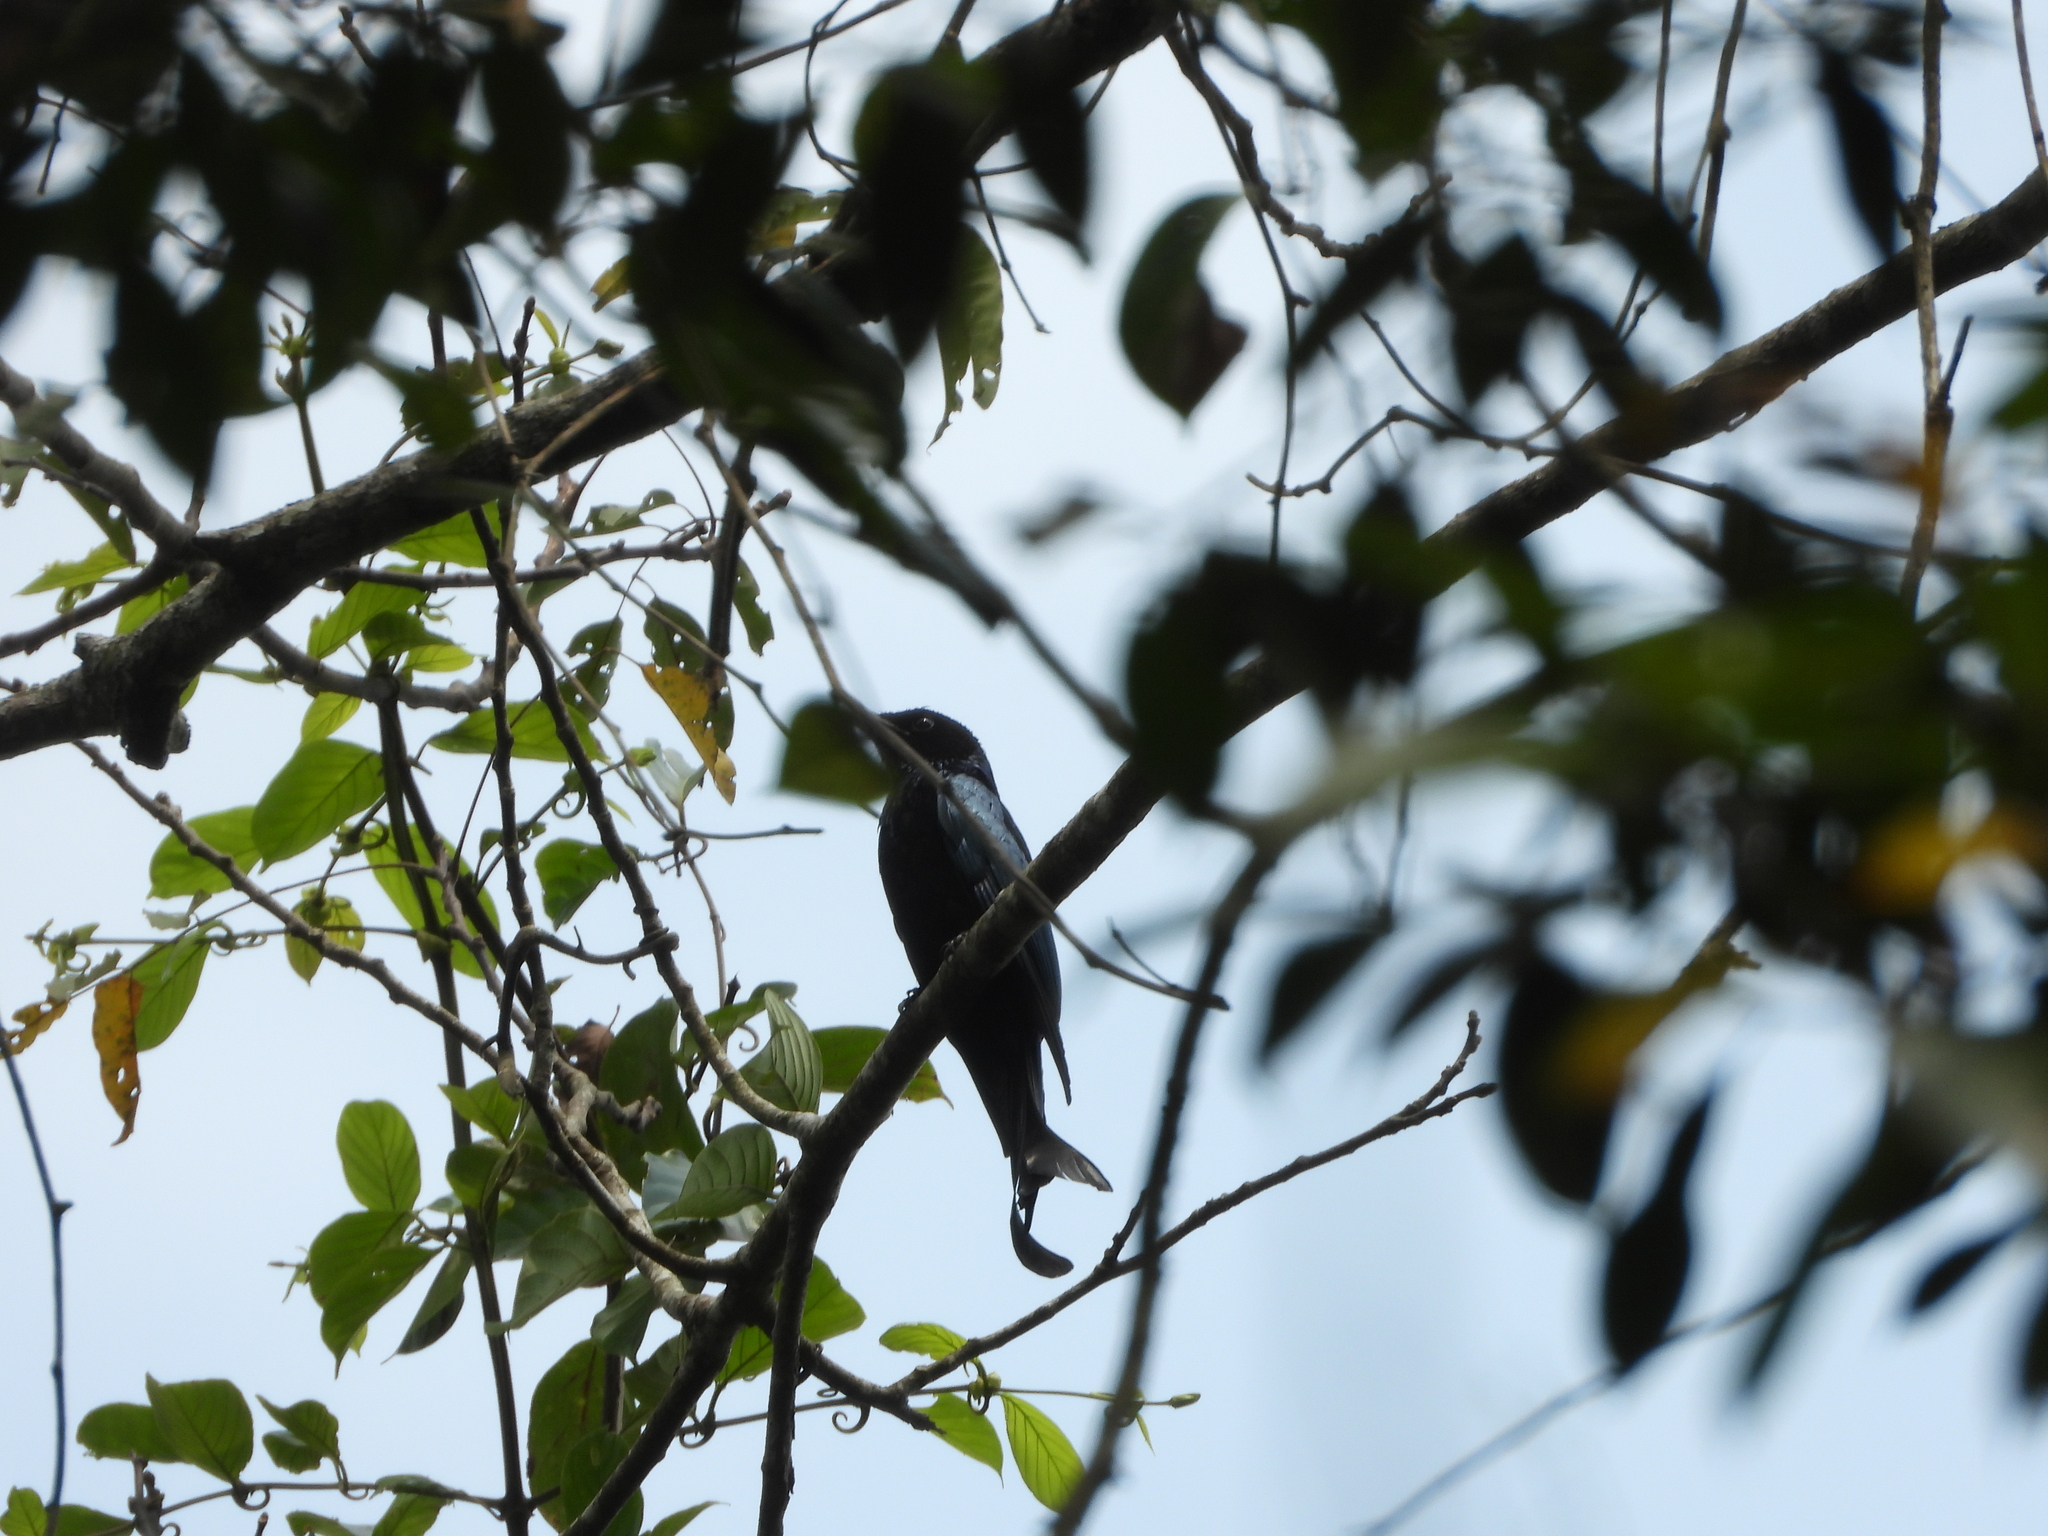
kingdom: Animalia
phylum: Chordata
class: Aves
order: Passeriformes
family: Dicruridae
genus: Dicrurus
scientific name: Dicrurus hottentottus
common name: Hair-crested drongo
